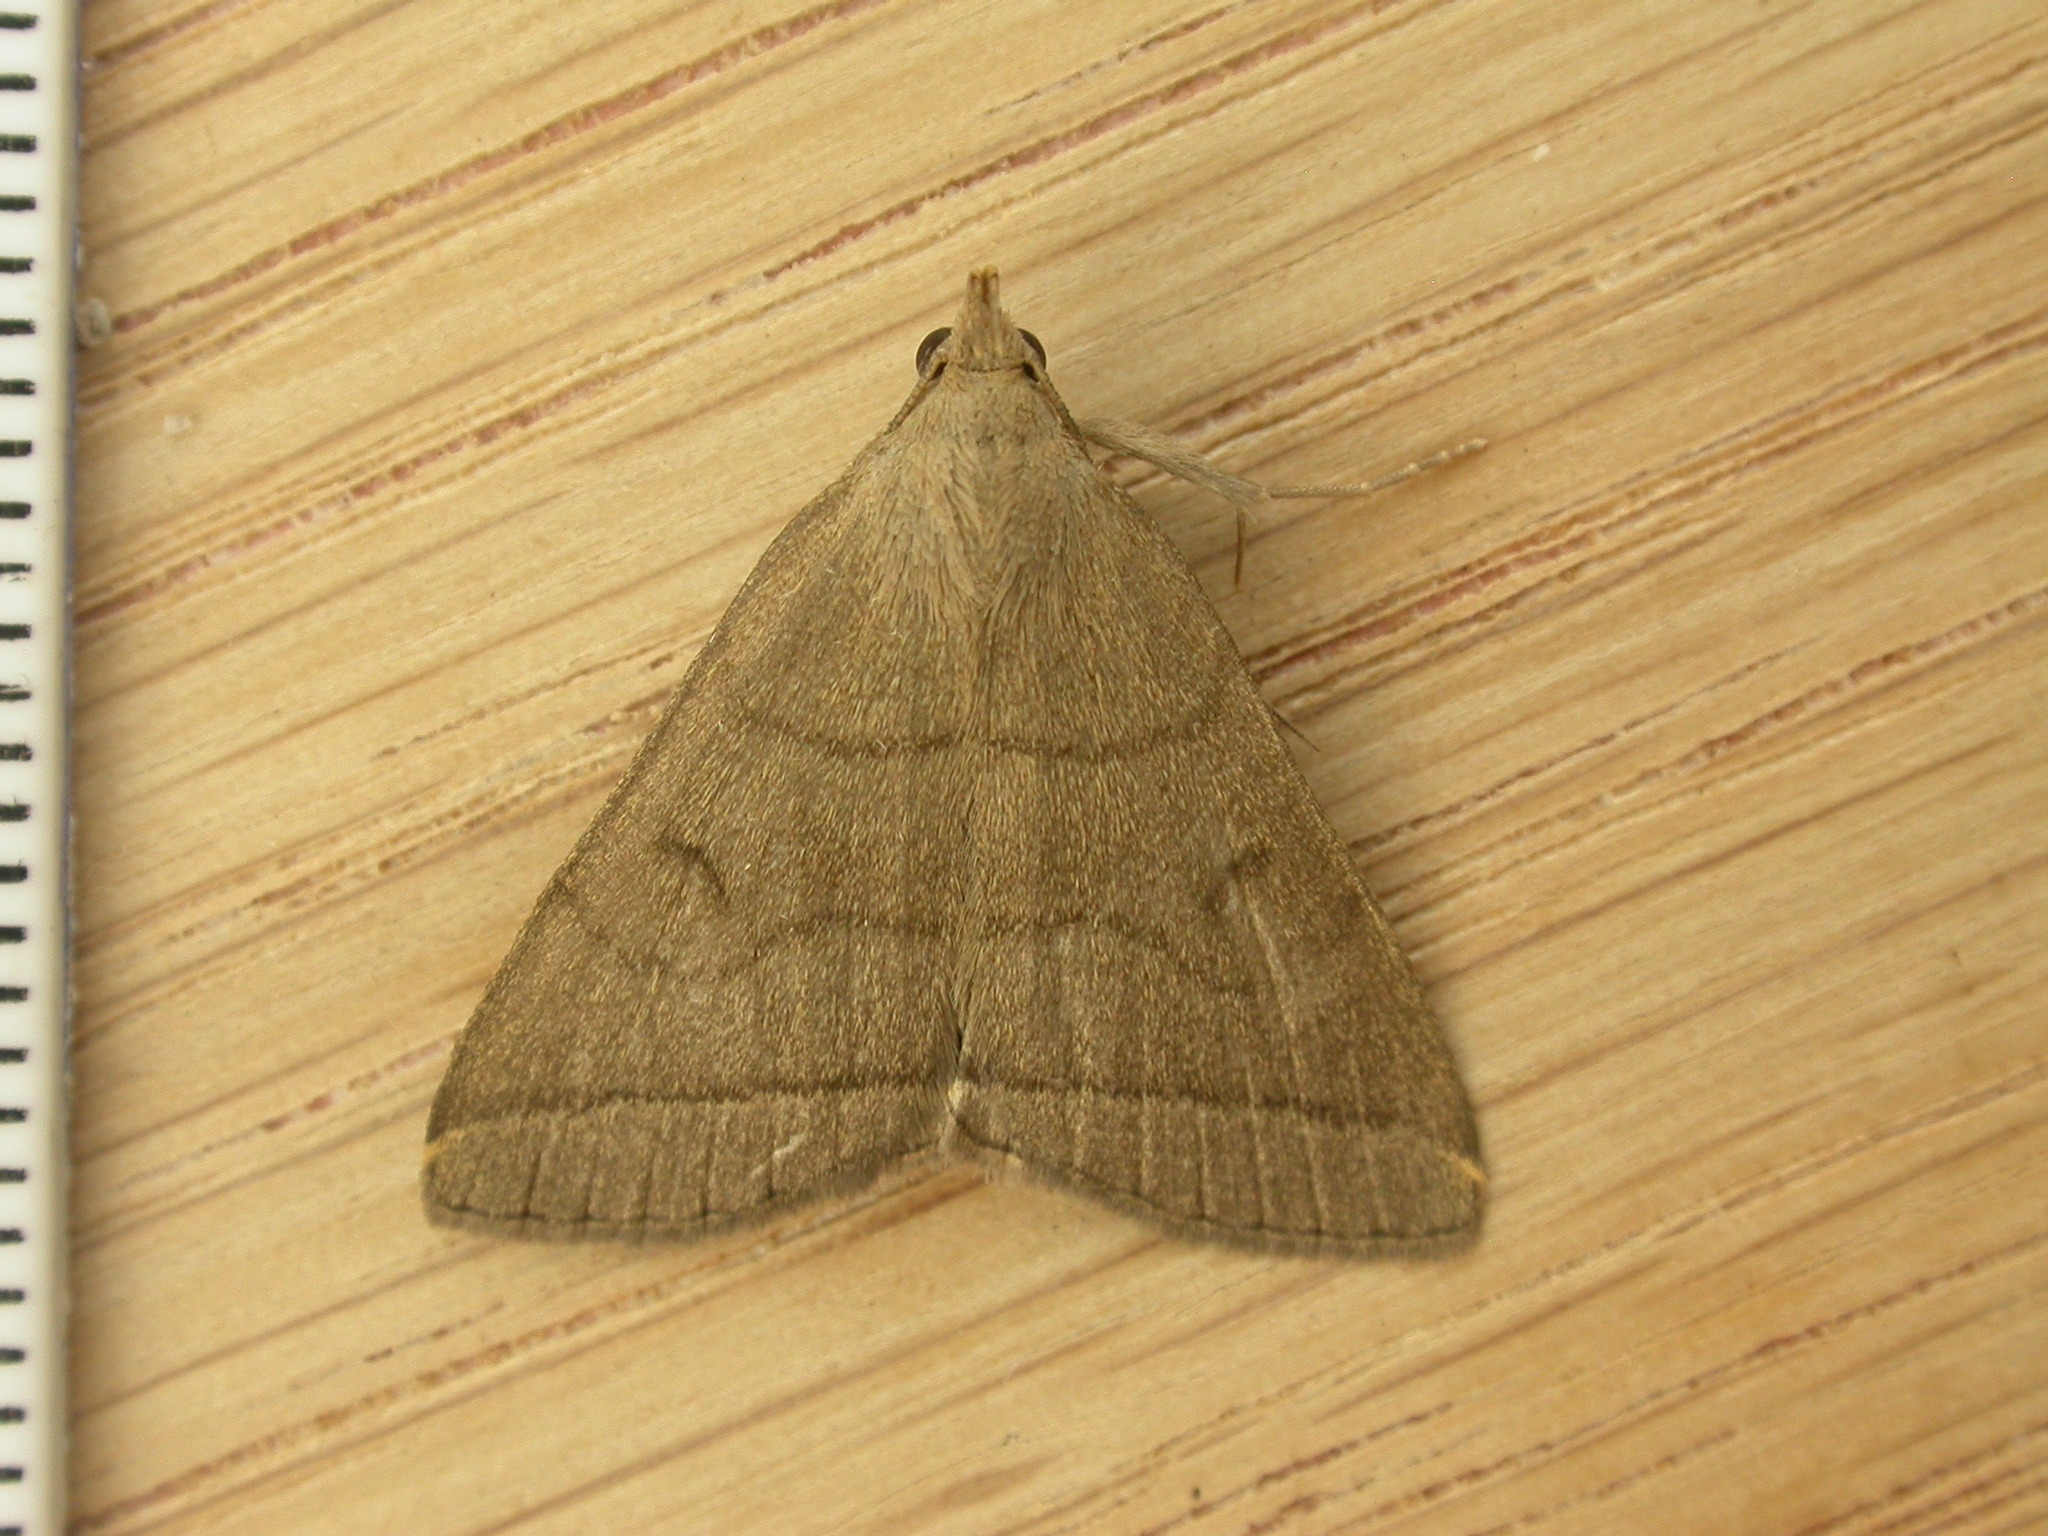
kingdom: Animalia
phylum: Arthropoda
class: Insecta
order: Lepidoptera
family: Erebidae
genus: Herminia
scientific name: Herminia tarsipennalis
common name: Fan-foot
